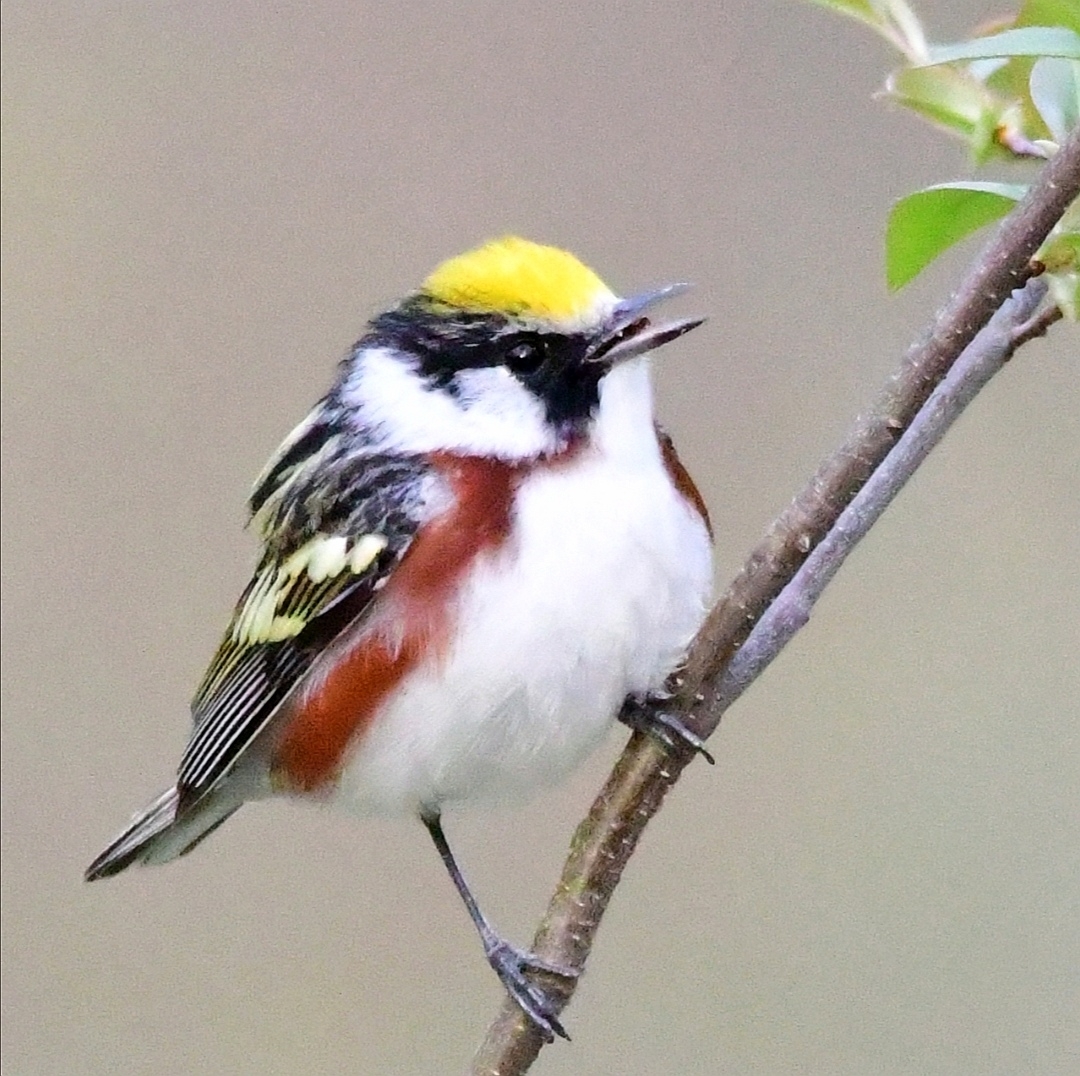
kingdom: Animalia
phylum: Chordata
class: Aves
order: Passeriformes
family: Parulidae
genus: Setophaga
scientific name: Setophaga pensylvanica
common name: Chestnut-sided warbler
